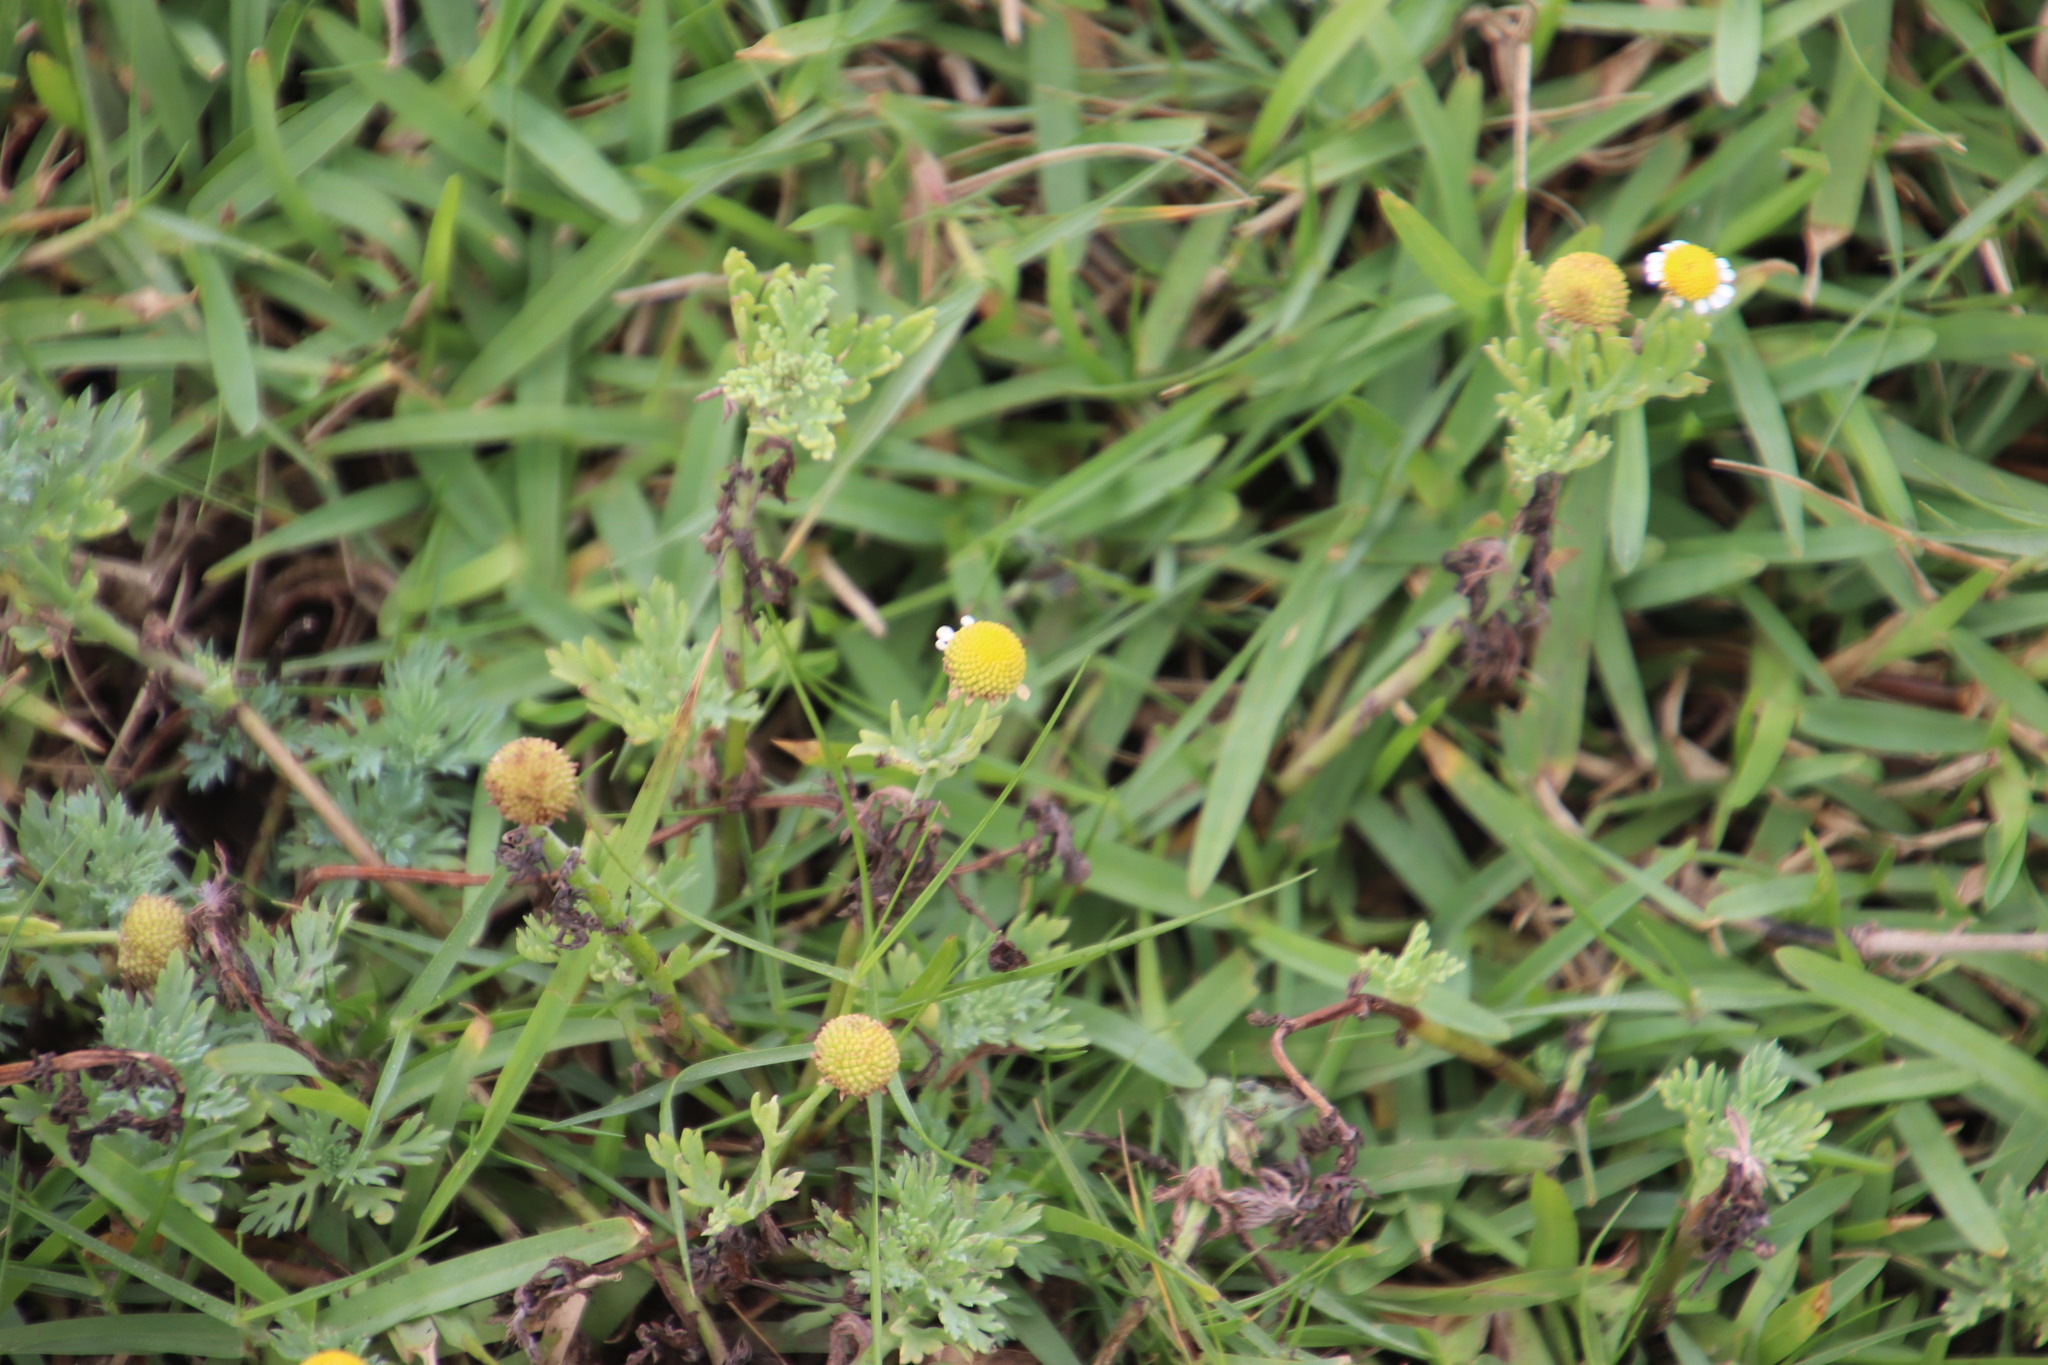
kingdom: Plantae
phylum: Tracheophyta
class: Magnoliopsida
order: Asterales
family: Asteraceae
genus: Cotula
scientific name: Cotula nigellifolia
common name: Staggerweed
